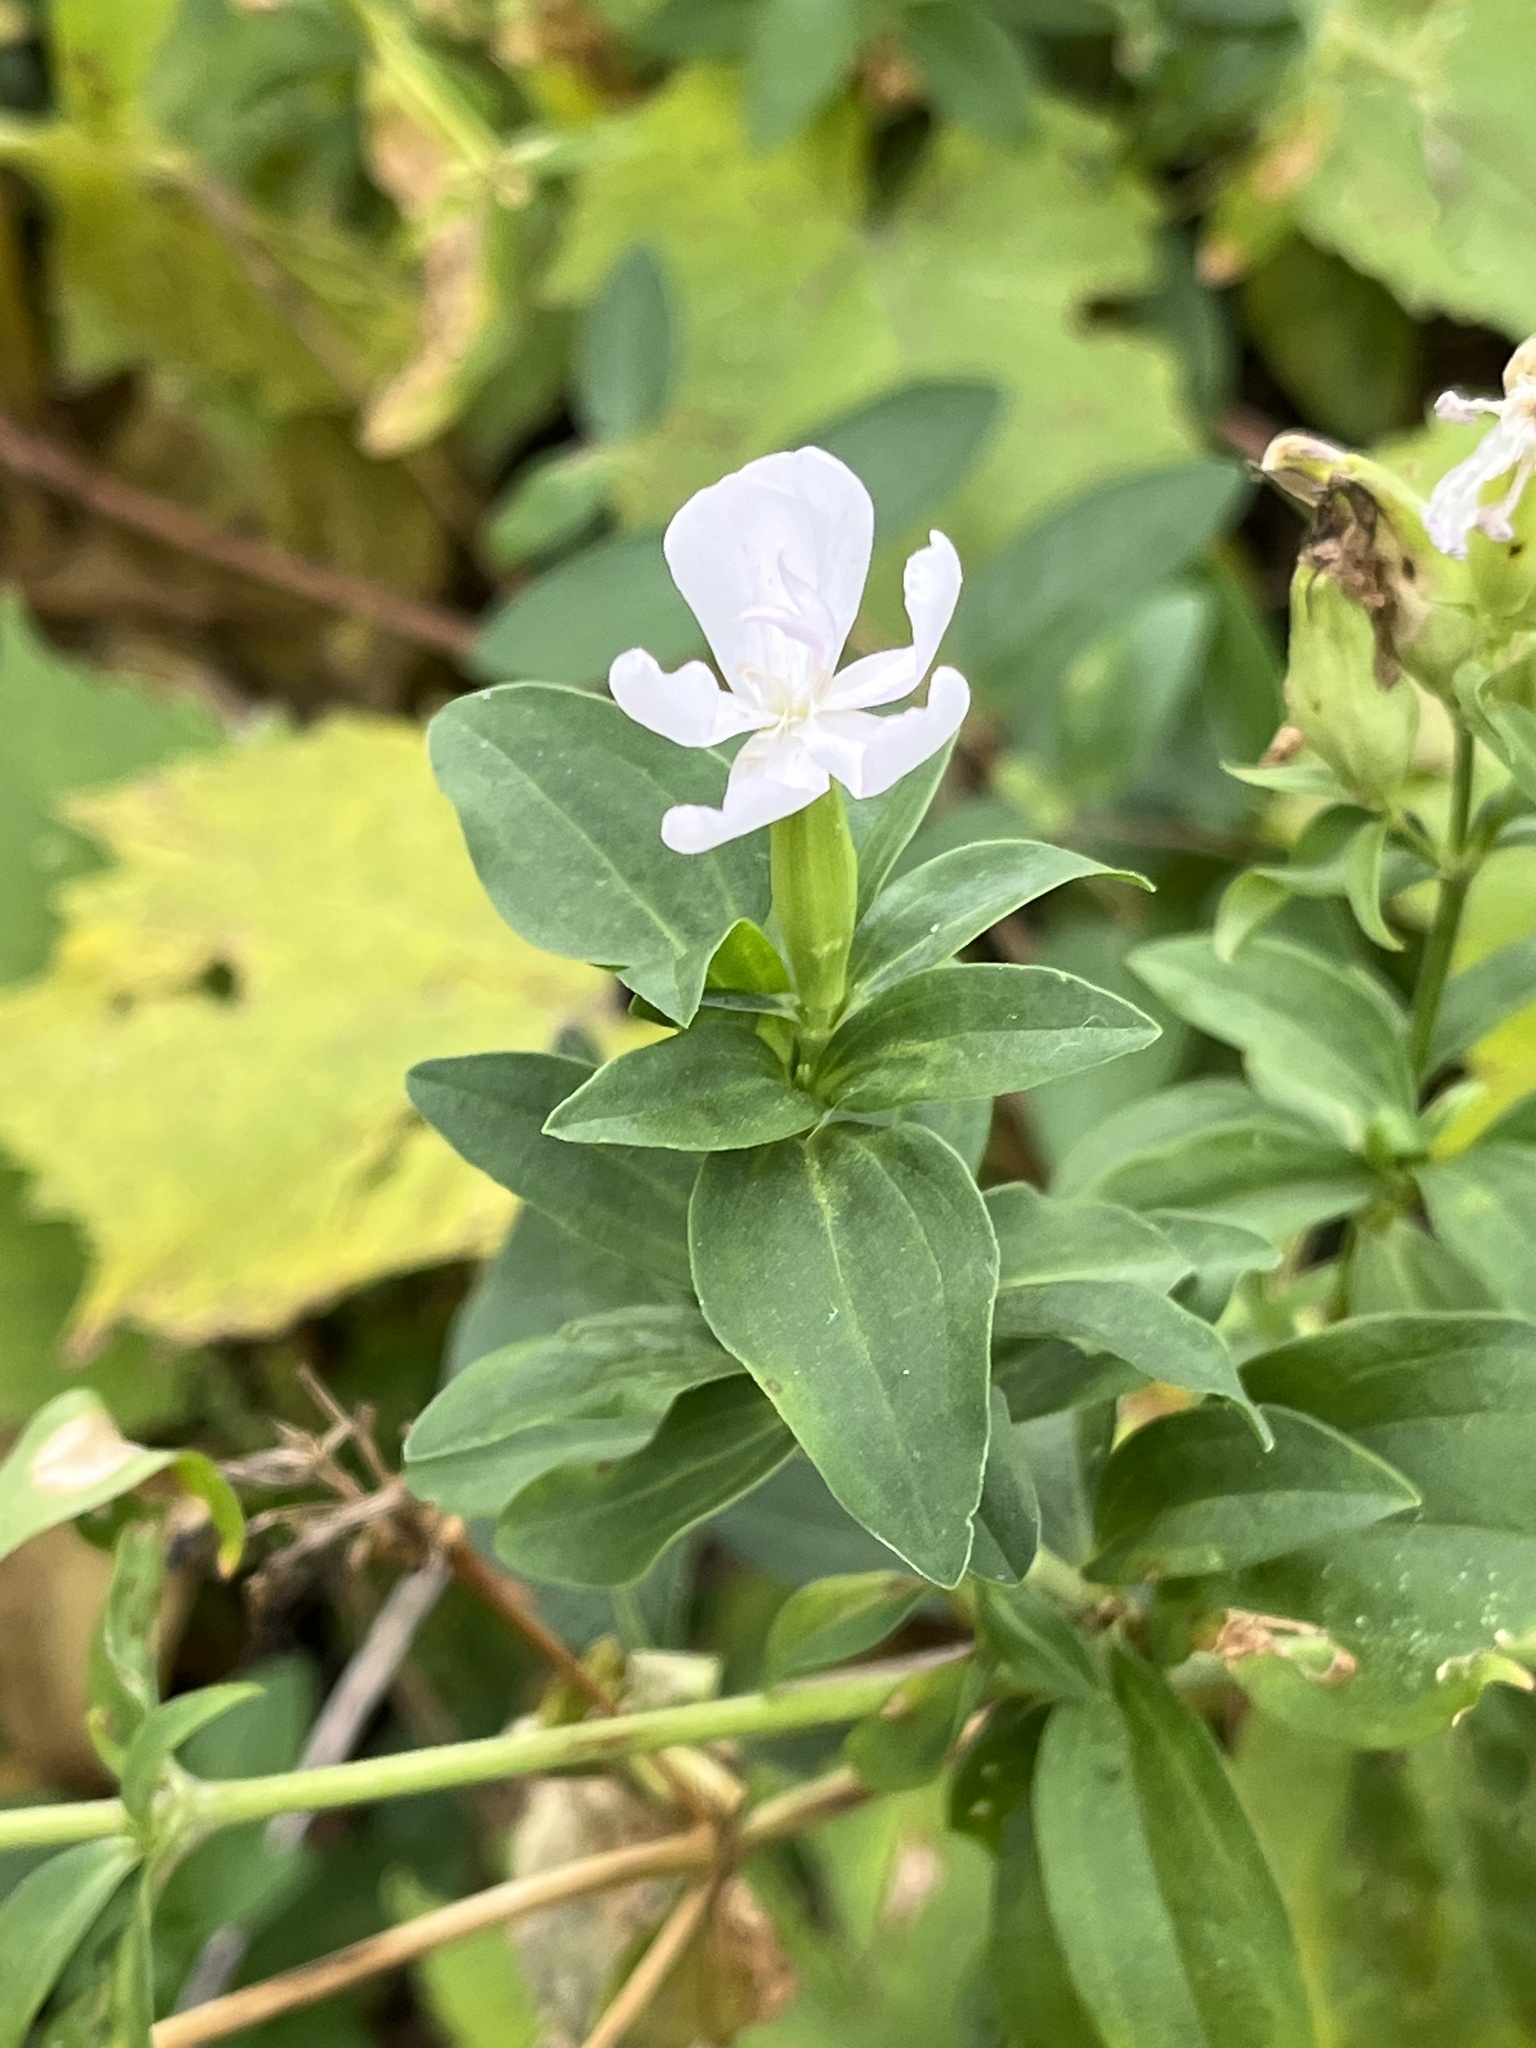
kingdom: Plantae
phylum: Tracheophyta
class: Magnoliopsida
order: Caryophyllales
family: Caryophyllaceae
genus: Saponaria
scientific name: Saponaria officinalis
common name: Soapwort
